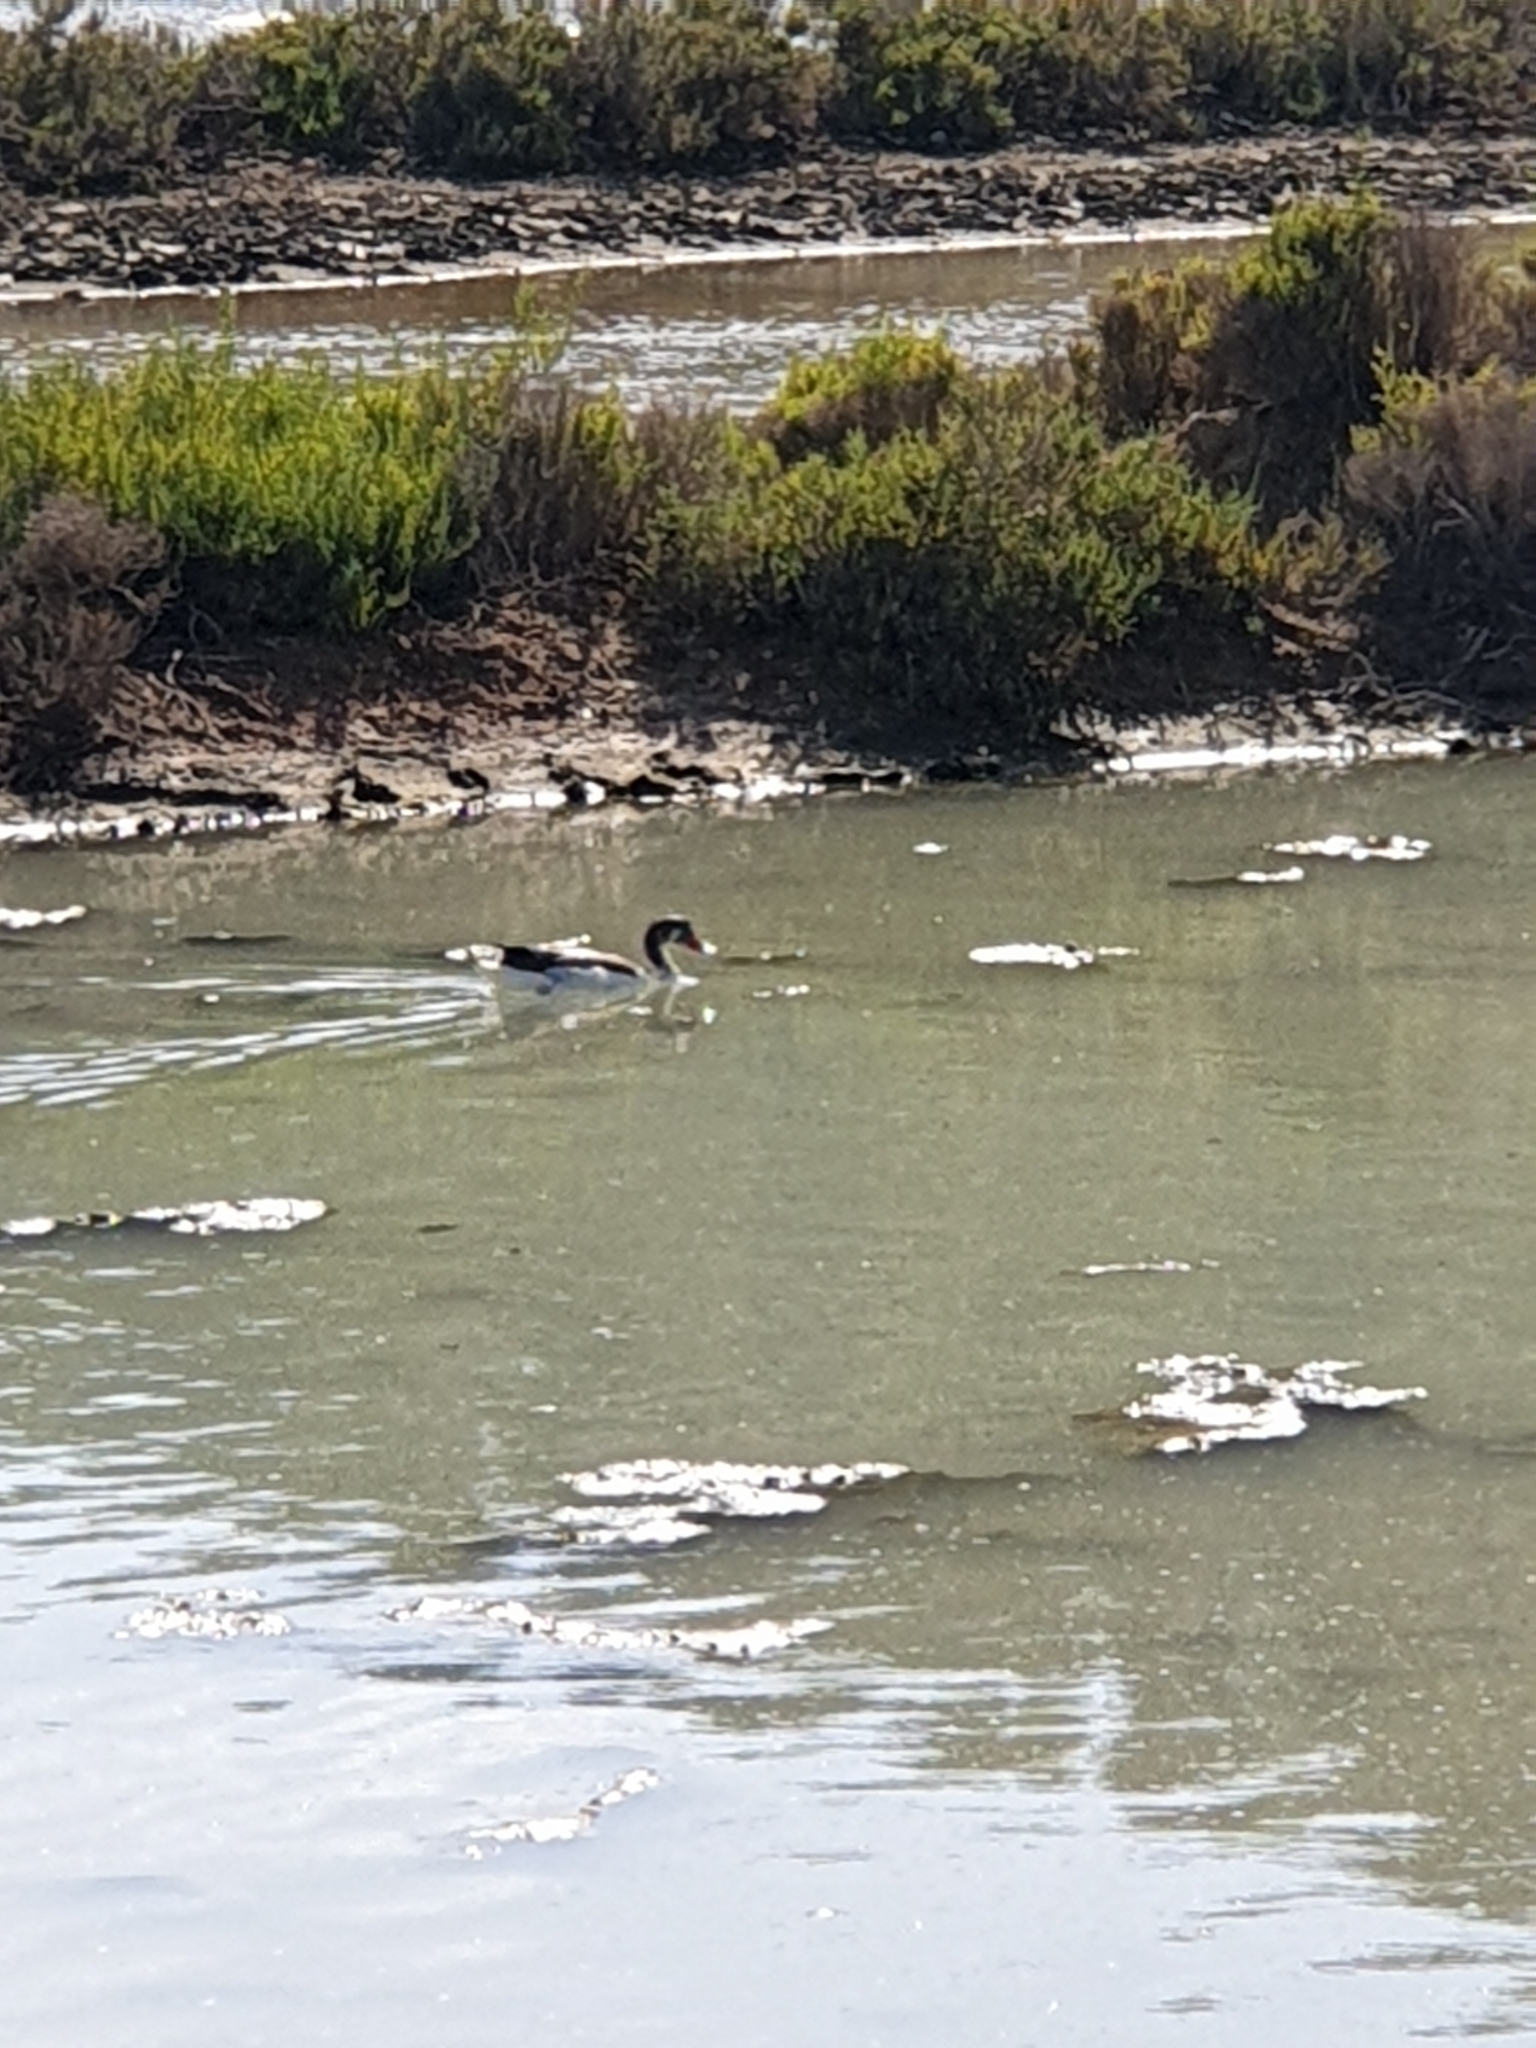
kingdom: Animalia
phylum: Chordata
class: Aves
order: Anseriformes
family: Anatidae
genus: Tadorna
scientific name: Tadorna tadorna
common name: Common shelduck
